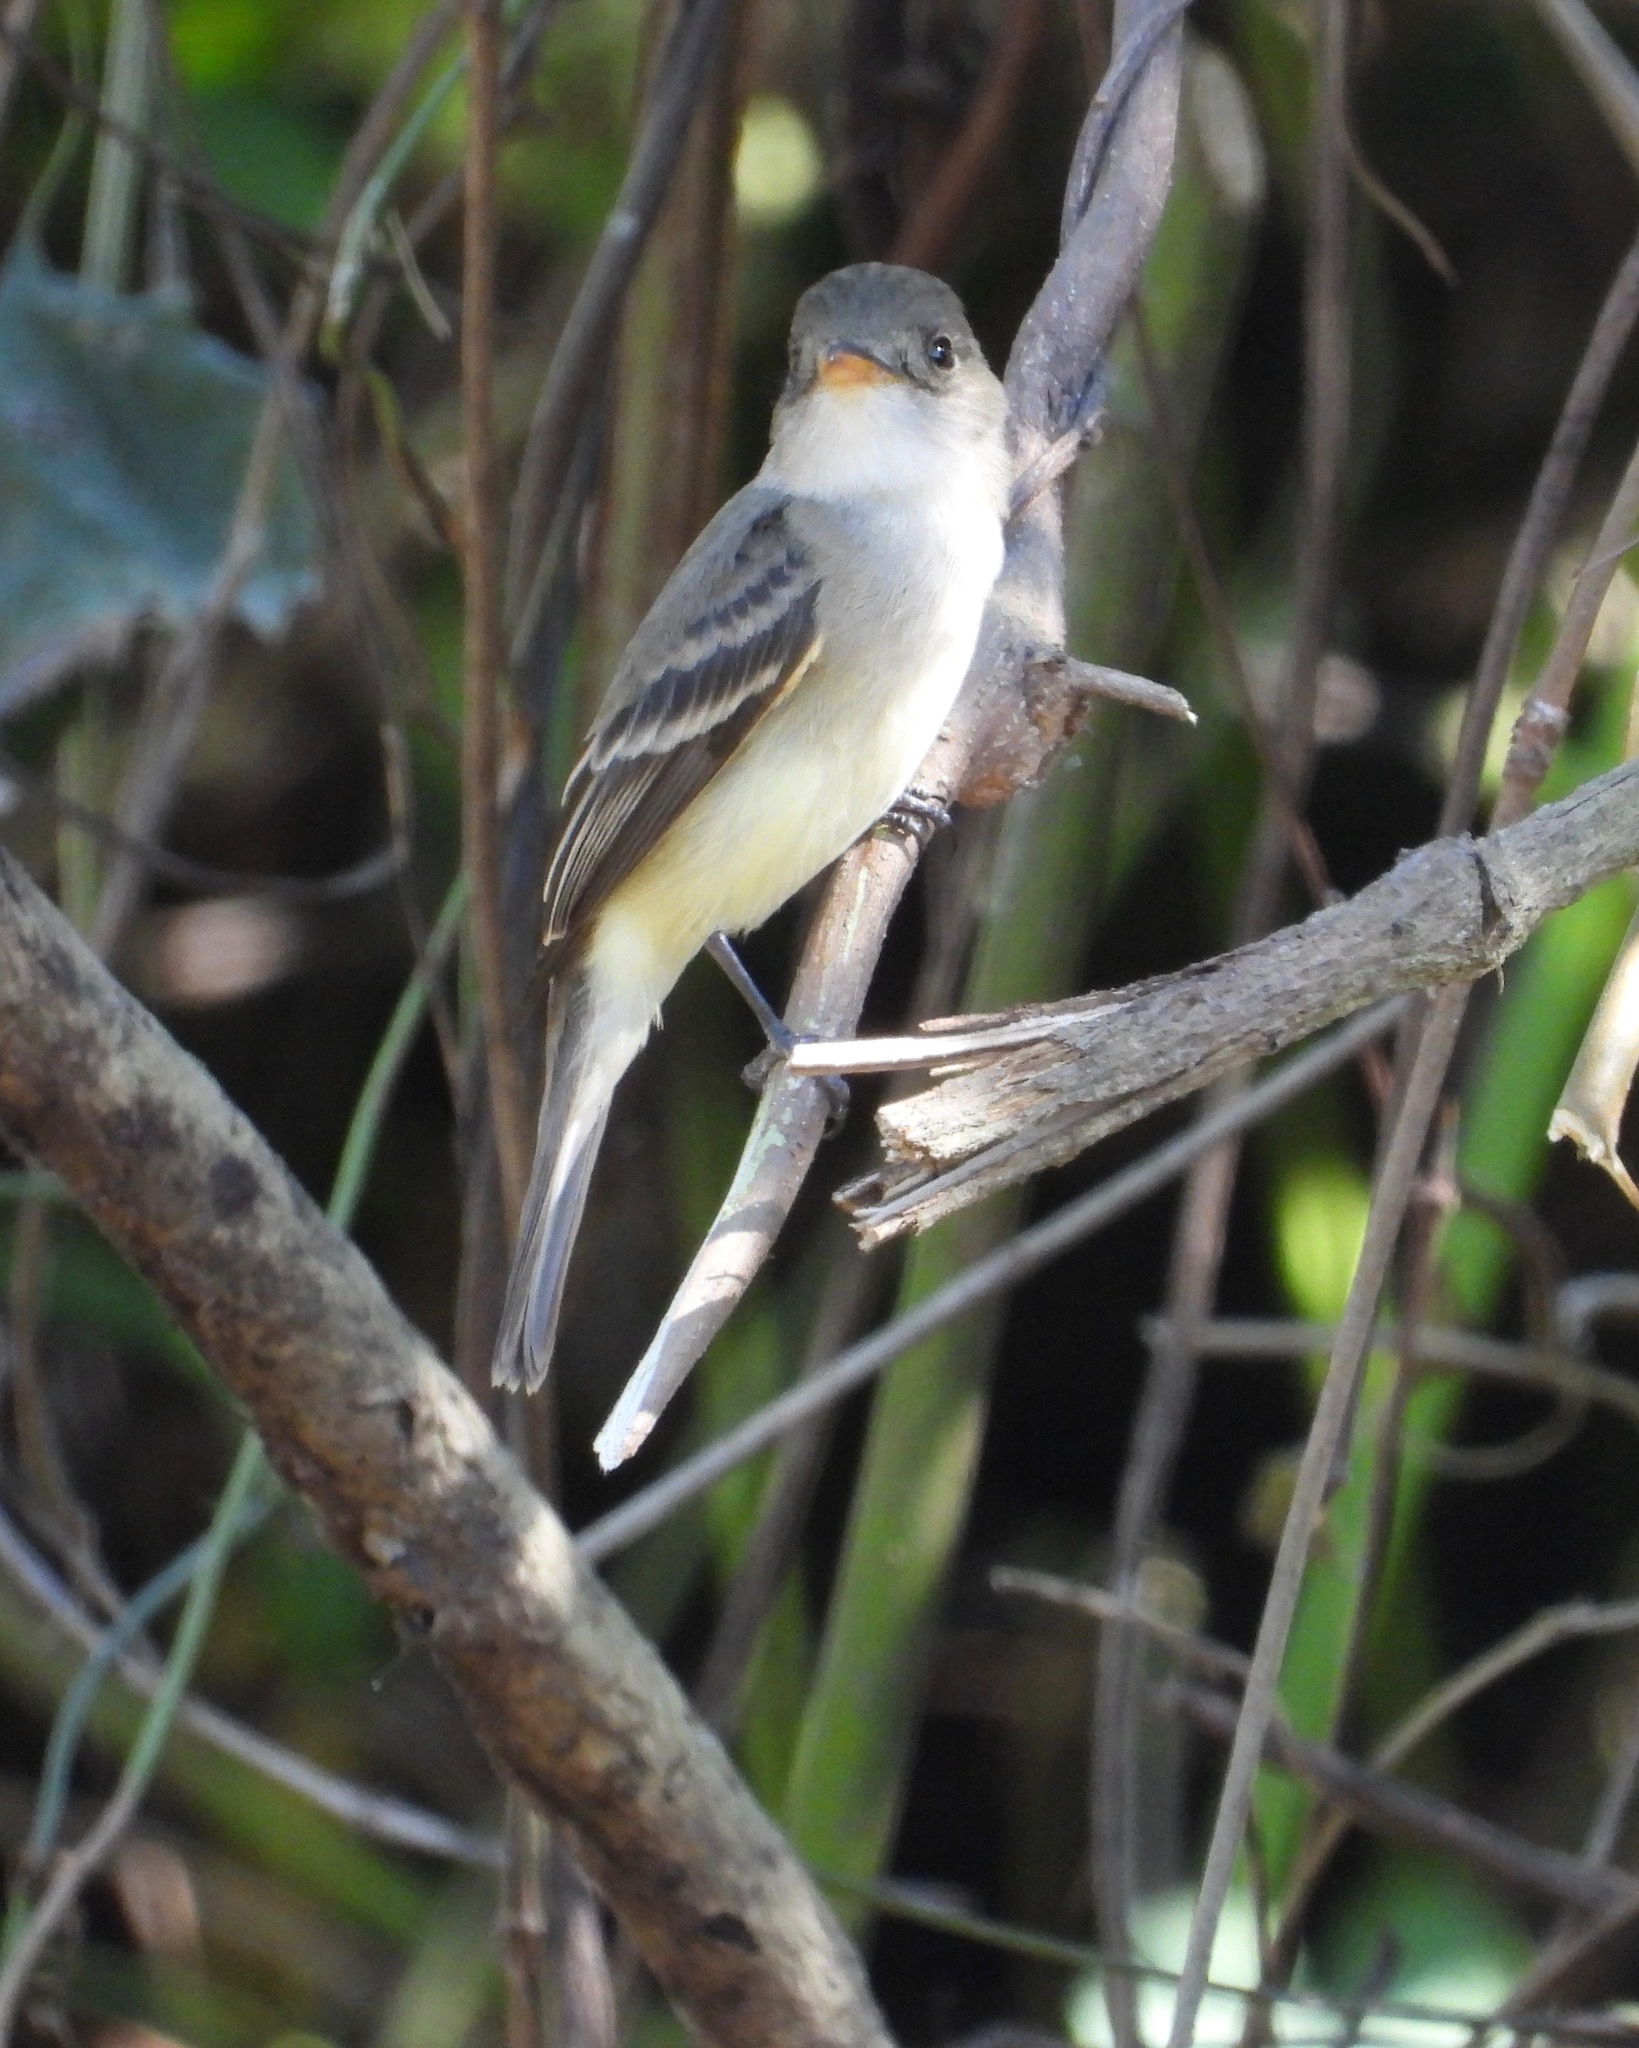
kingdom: Animalia
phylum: Chordata
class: Aves
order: Passeriformes
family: Tyrannidae
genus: Empidonax
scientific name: Empidonax traillii
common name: Willow flycatcher
